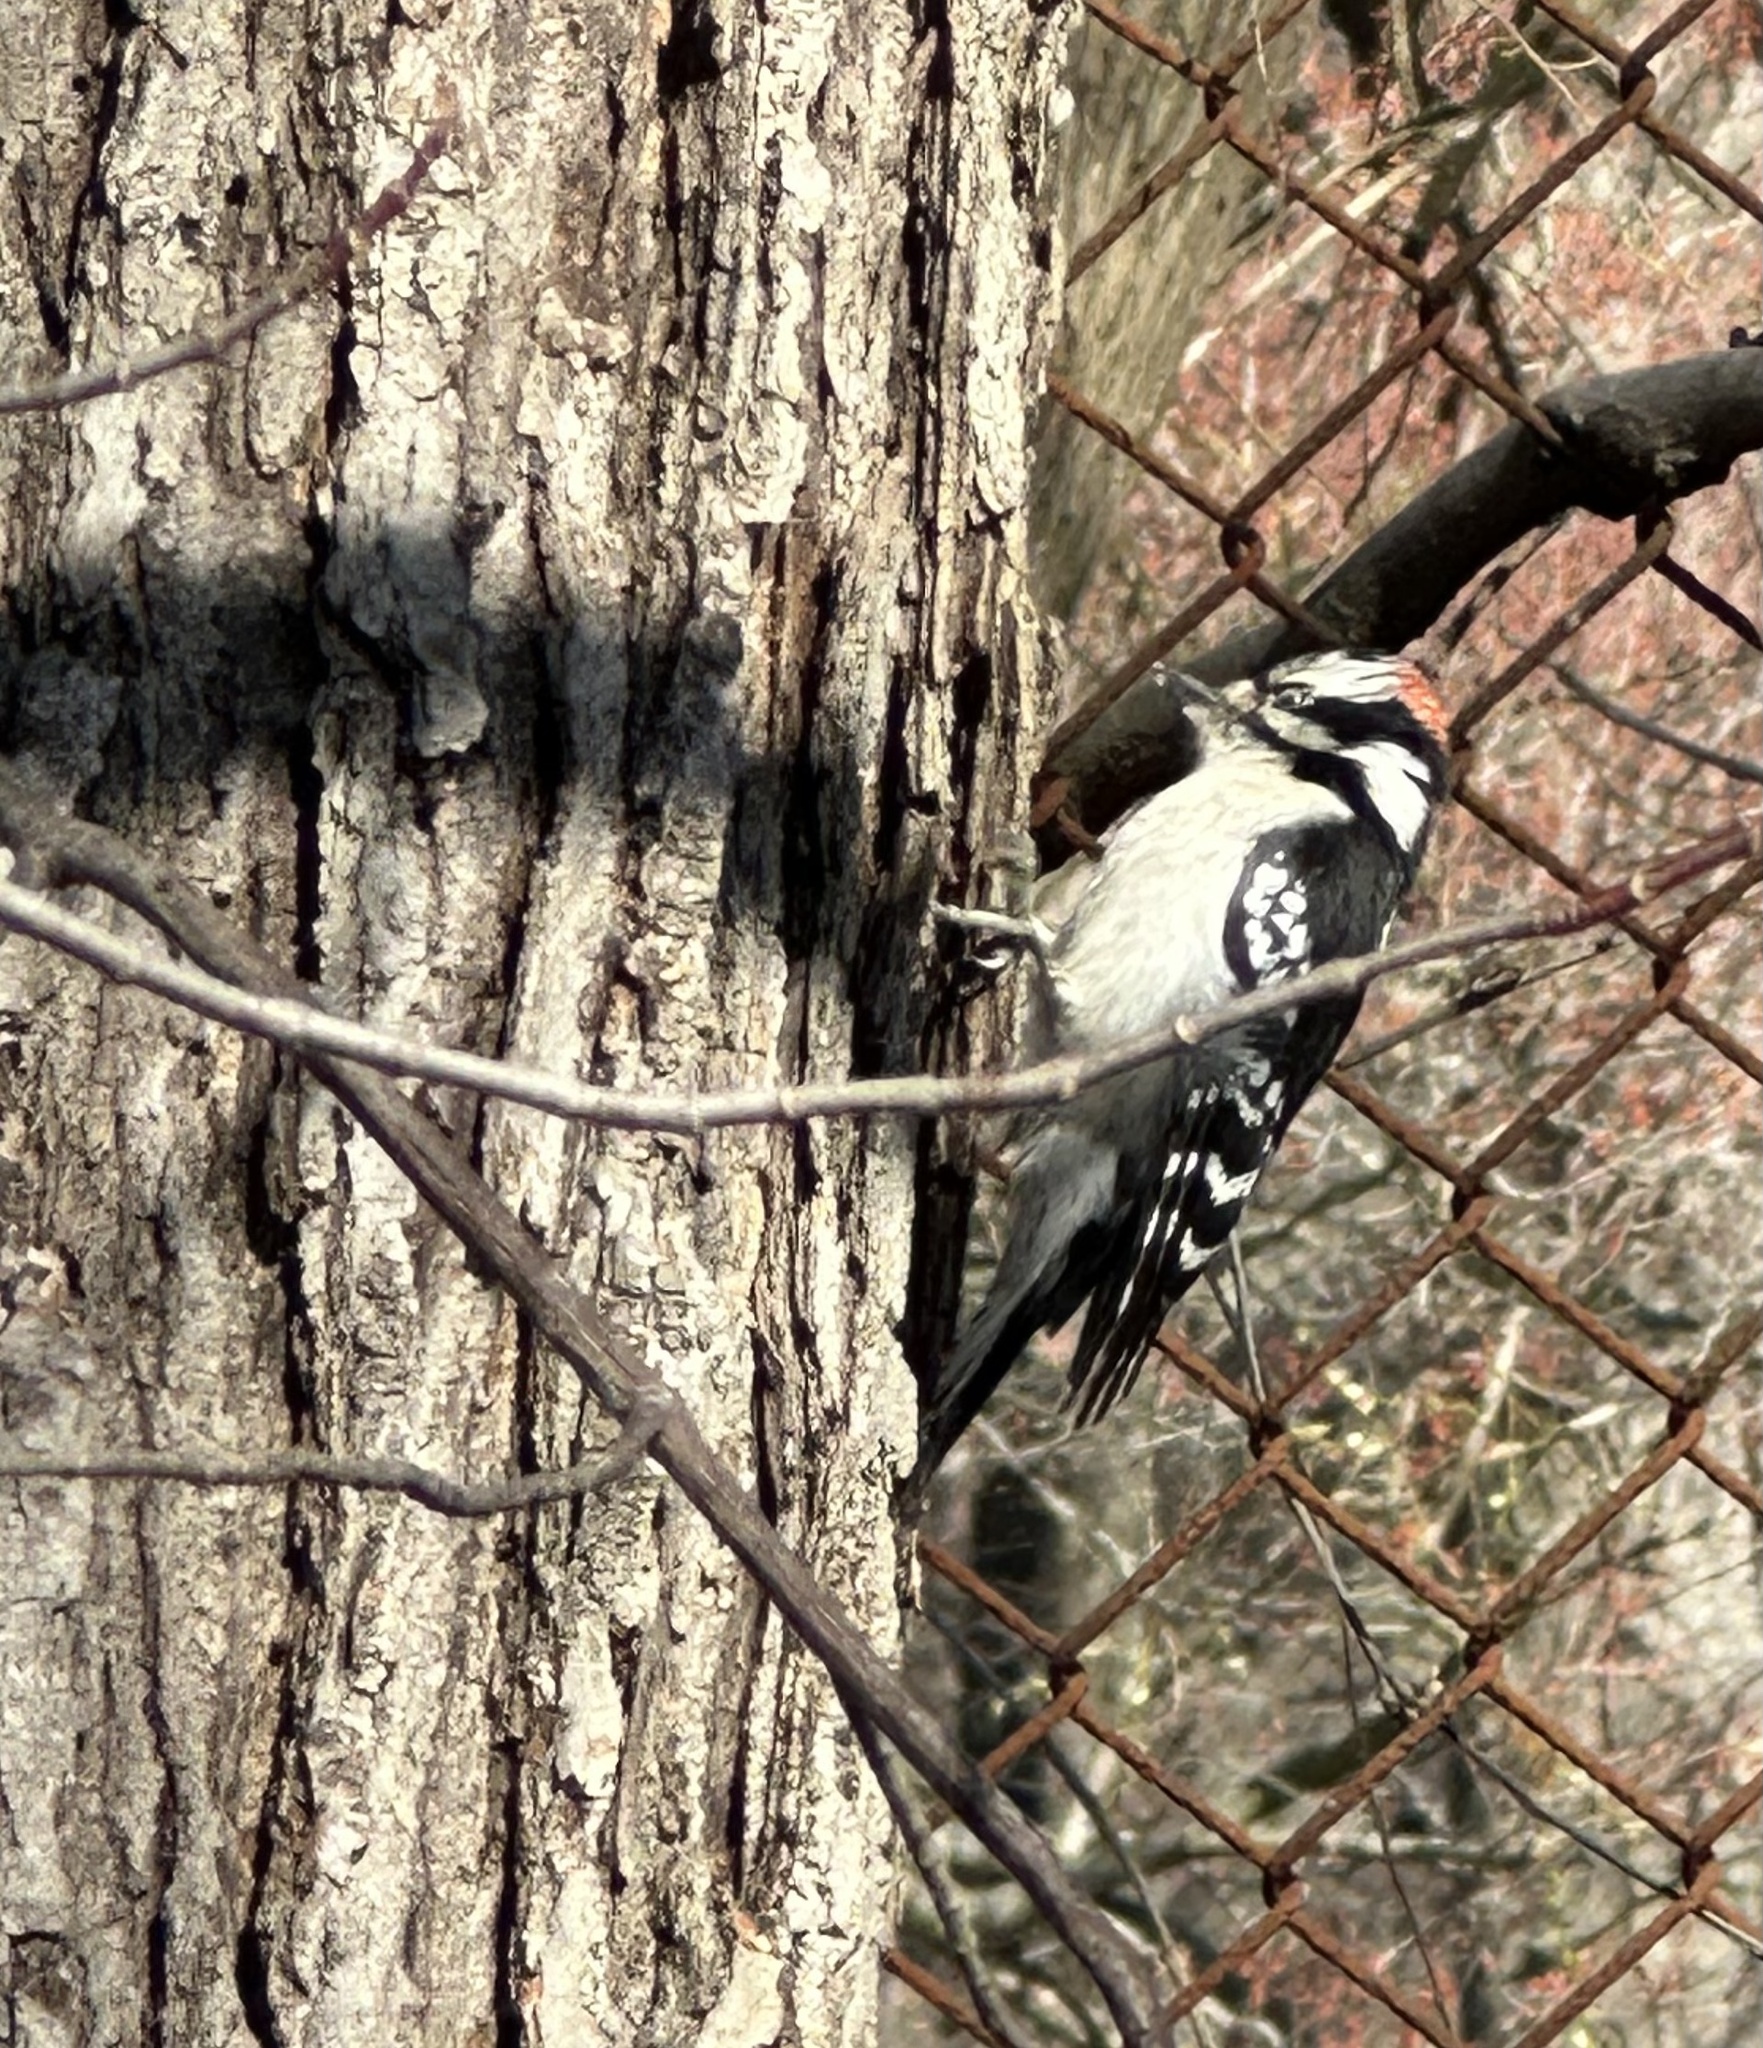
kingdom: Animalia
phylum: Chordata
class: Aves
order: Piciformes
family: Picidae
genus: Dryobates
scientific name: Dryobates pubescens
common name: Downy woodpecker
